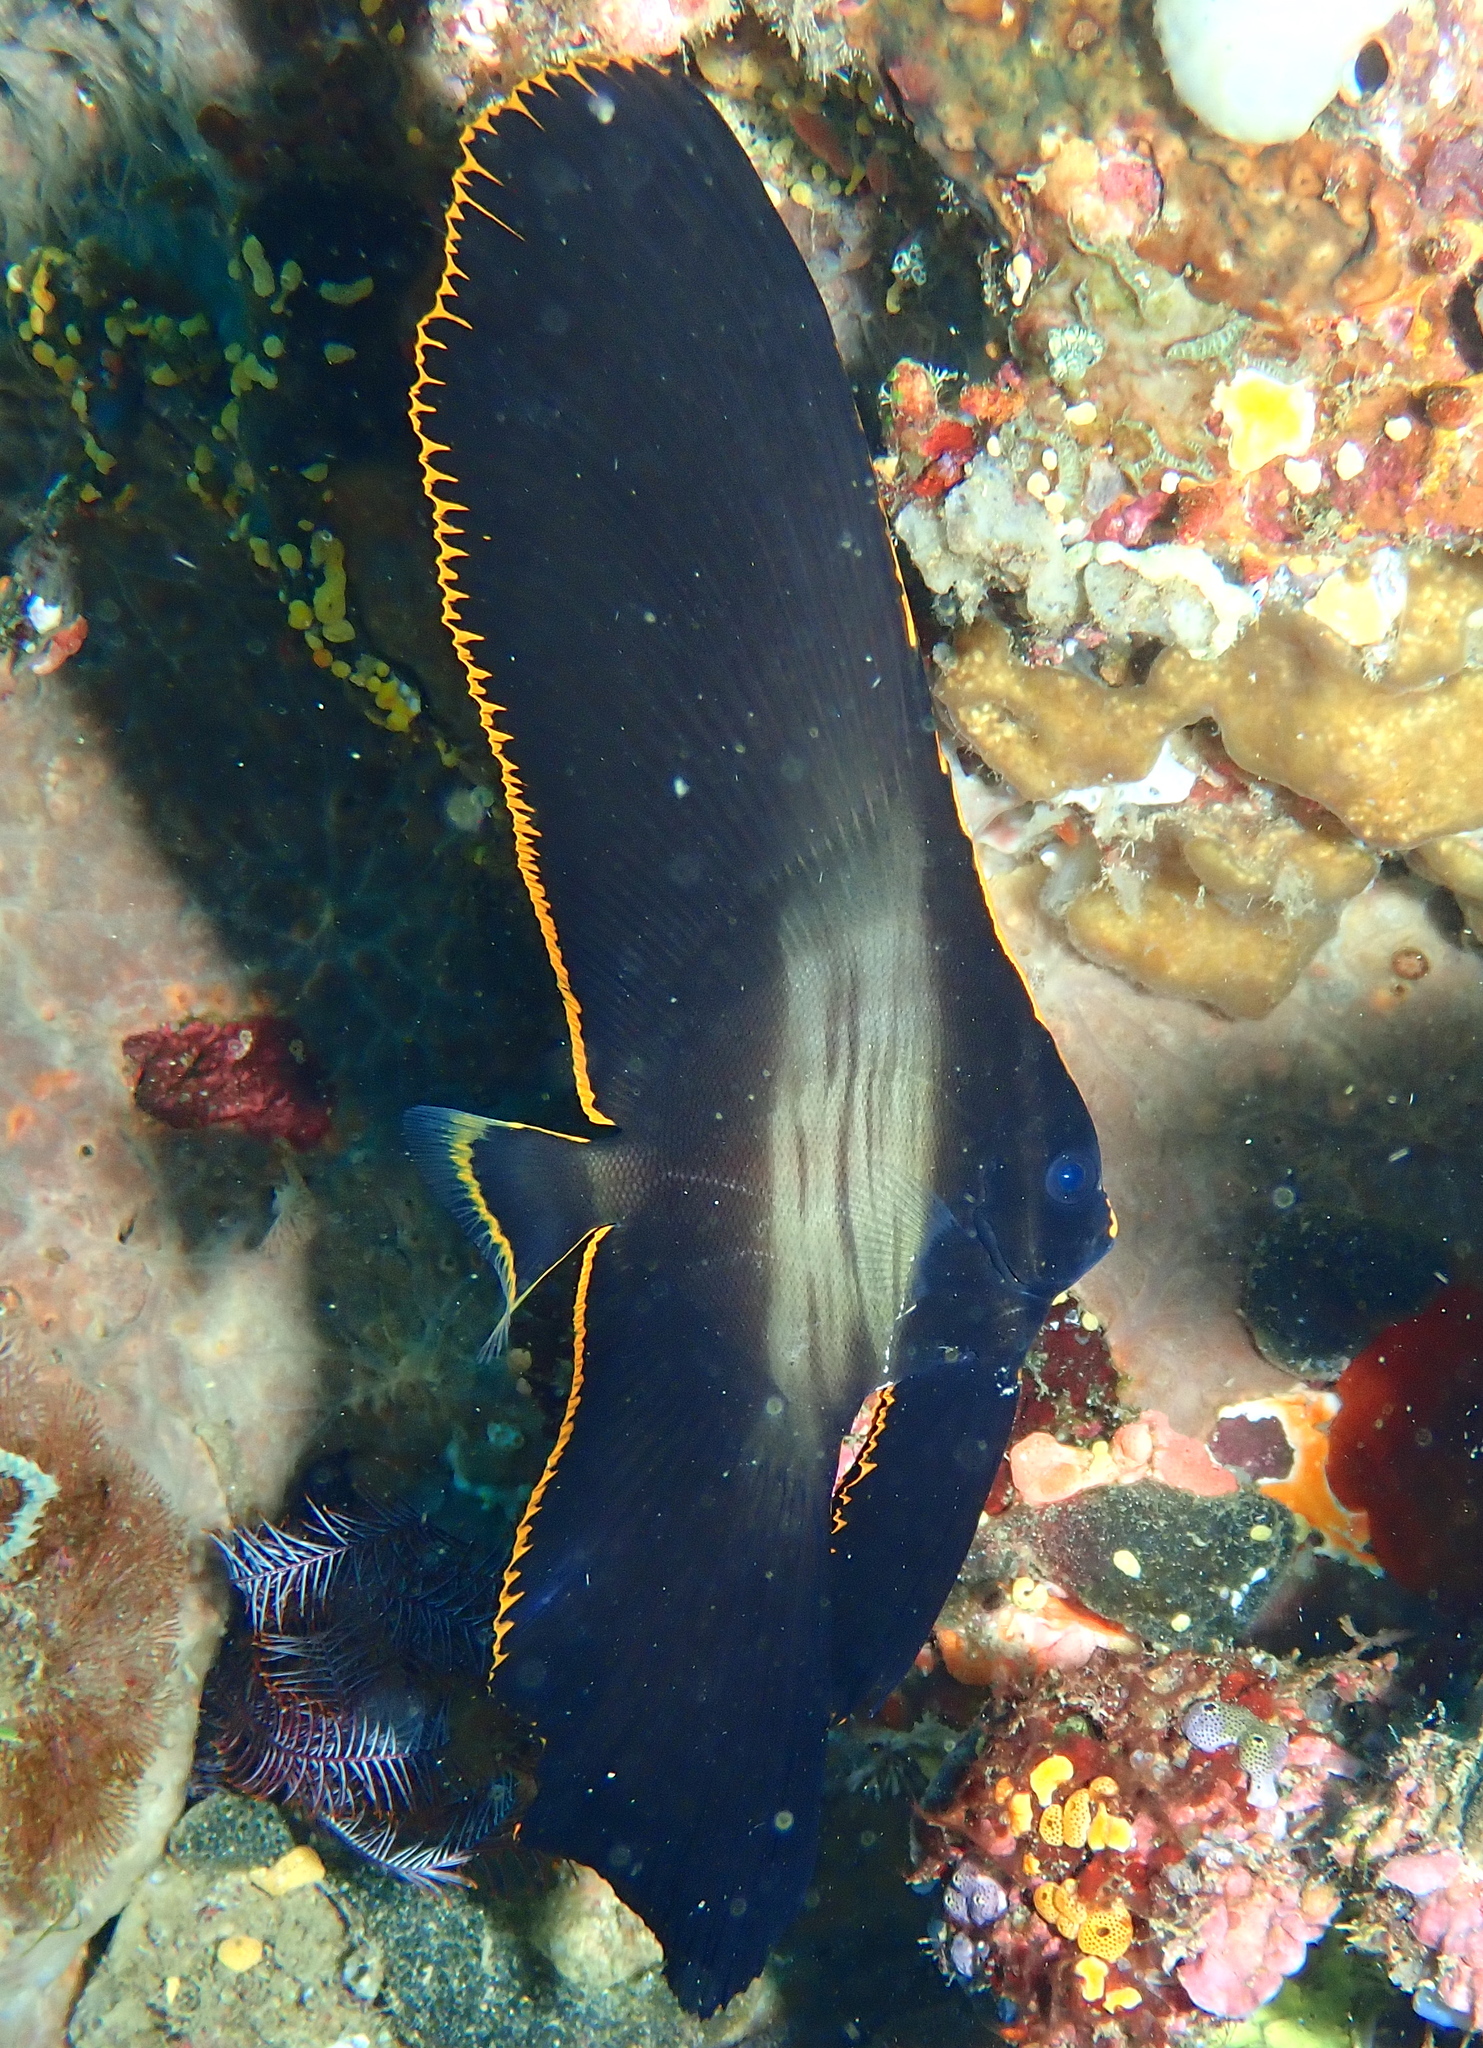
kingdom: Animalia
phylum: Chordata
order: Perciformes
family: Ephippidae
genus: Platax
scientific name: Platax pinnatus
